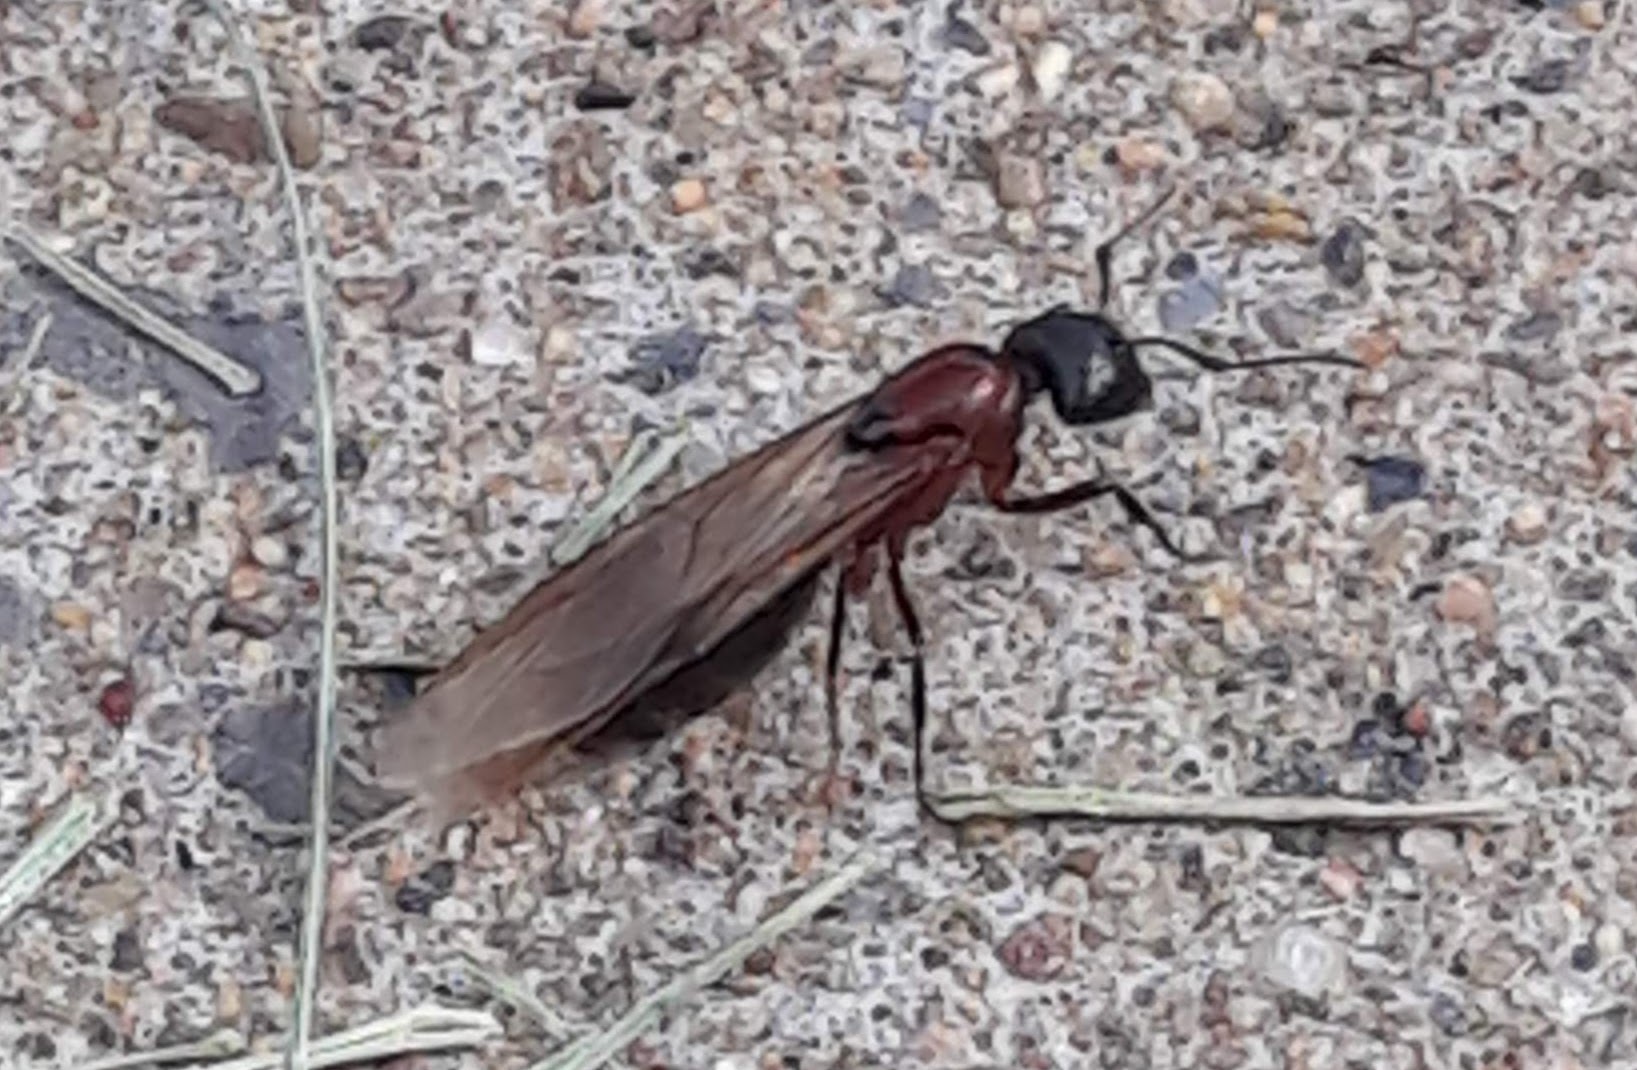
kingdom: Animalia
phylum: Arthropoda
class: Insecta
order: Hymenoptera
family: Formicidae
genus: Camponotus
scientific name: Camponotus novaeboracensis
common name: New york carpenter ant
